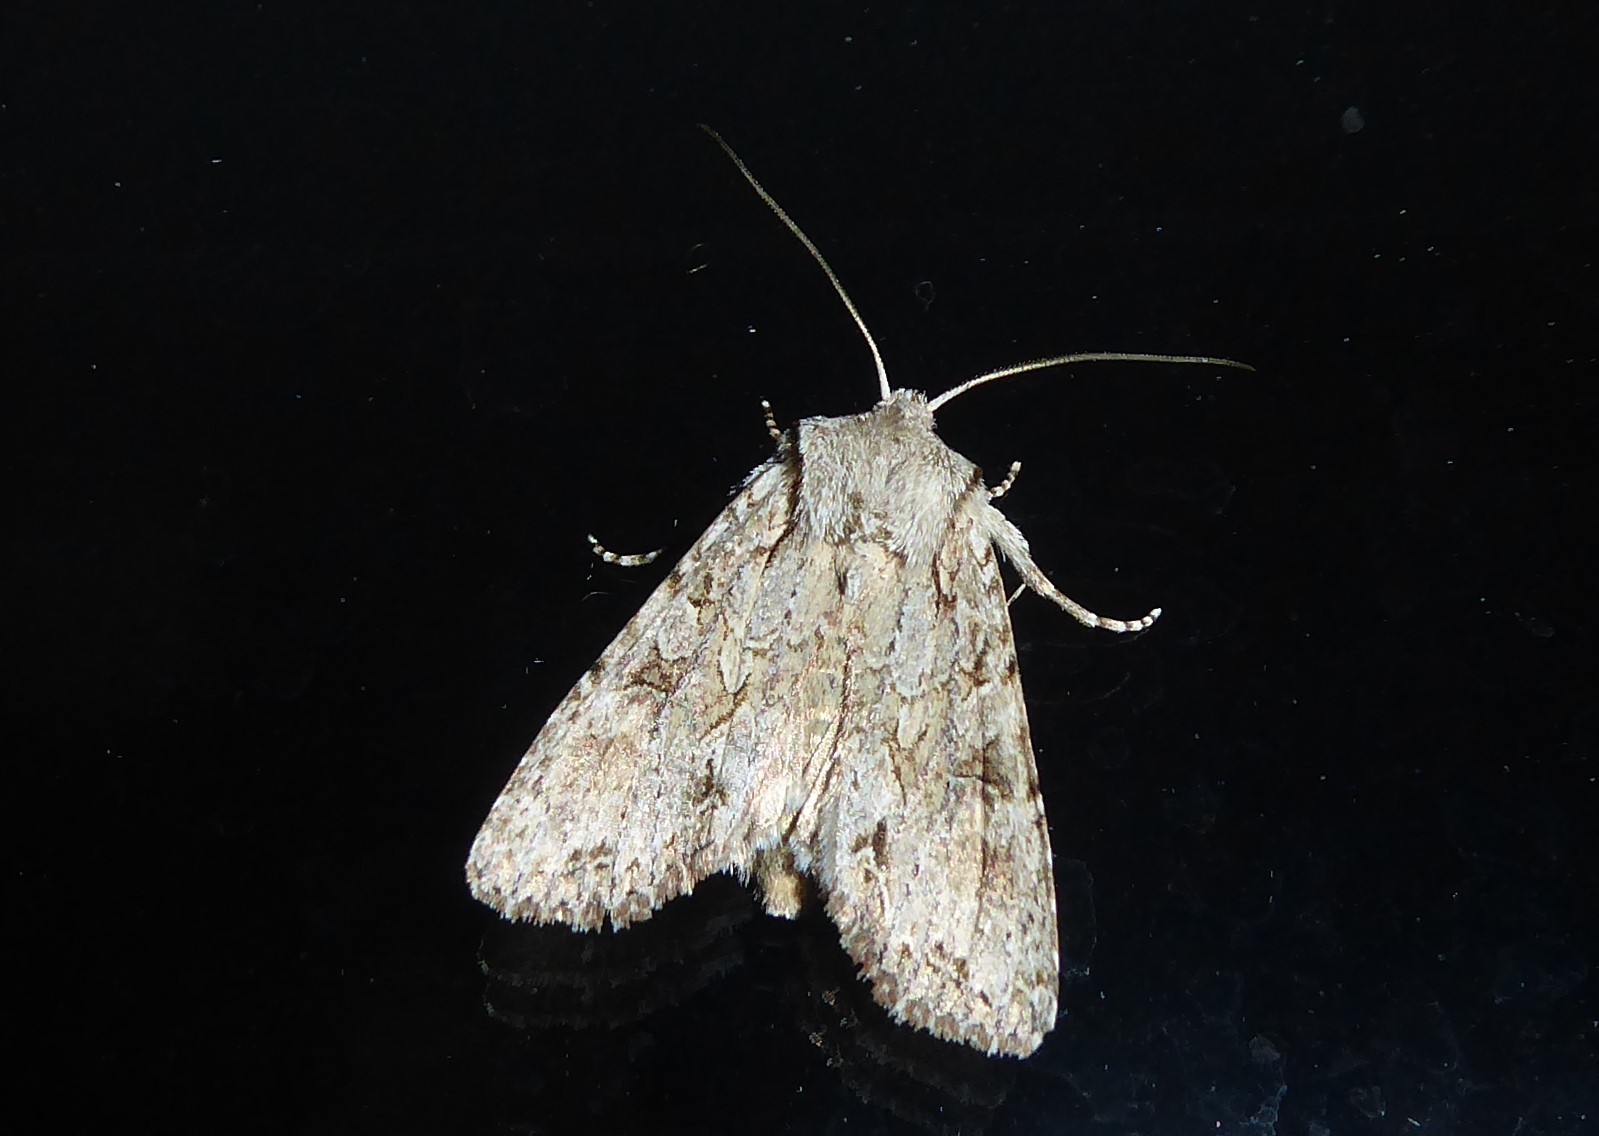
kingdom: Animalia
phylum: Arthropoda
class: Insecta
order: Lepidoptera
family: Noctuidae
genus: Ichneutica
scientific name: Ichneutica mutans
